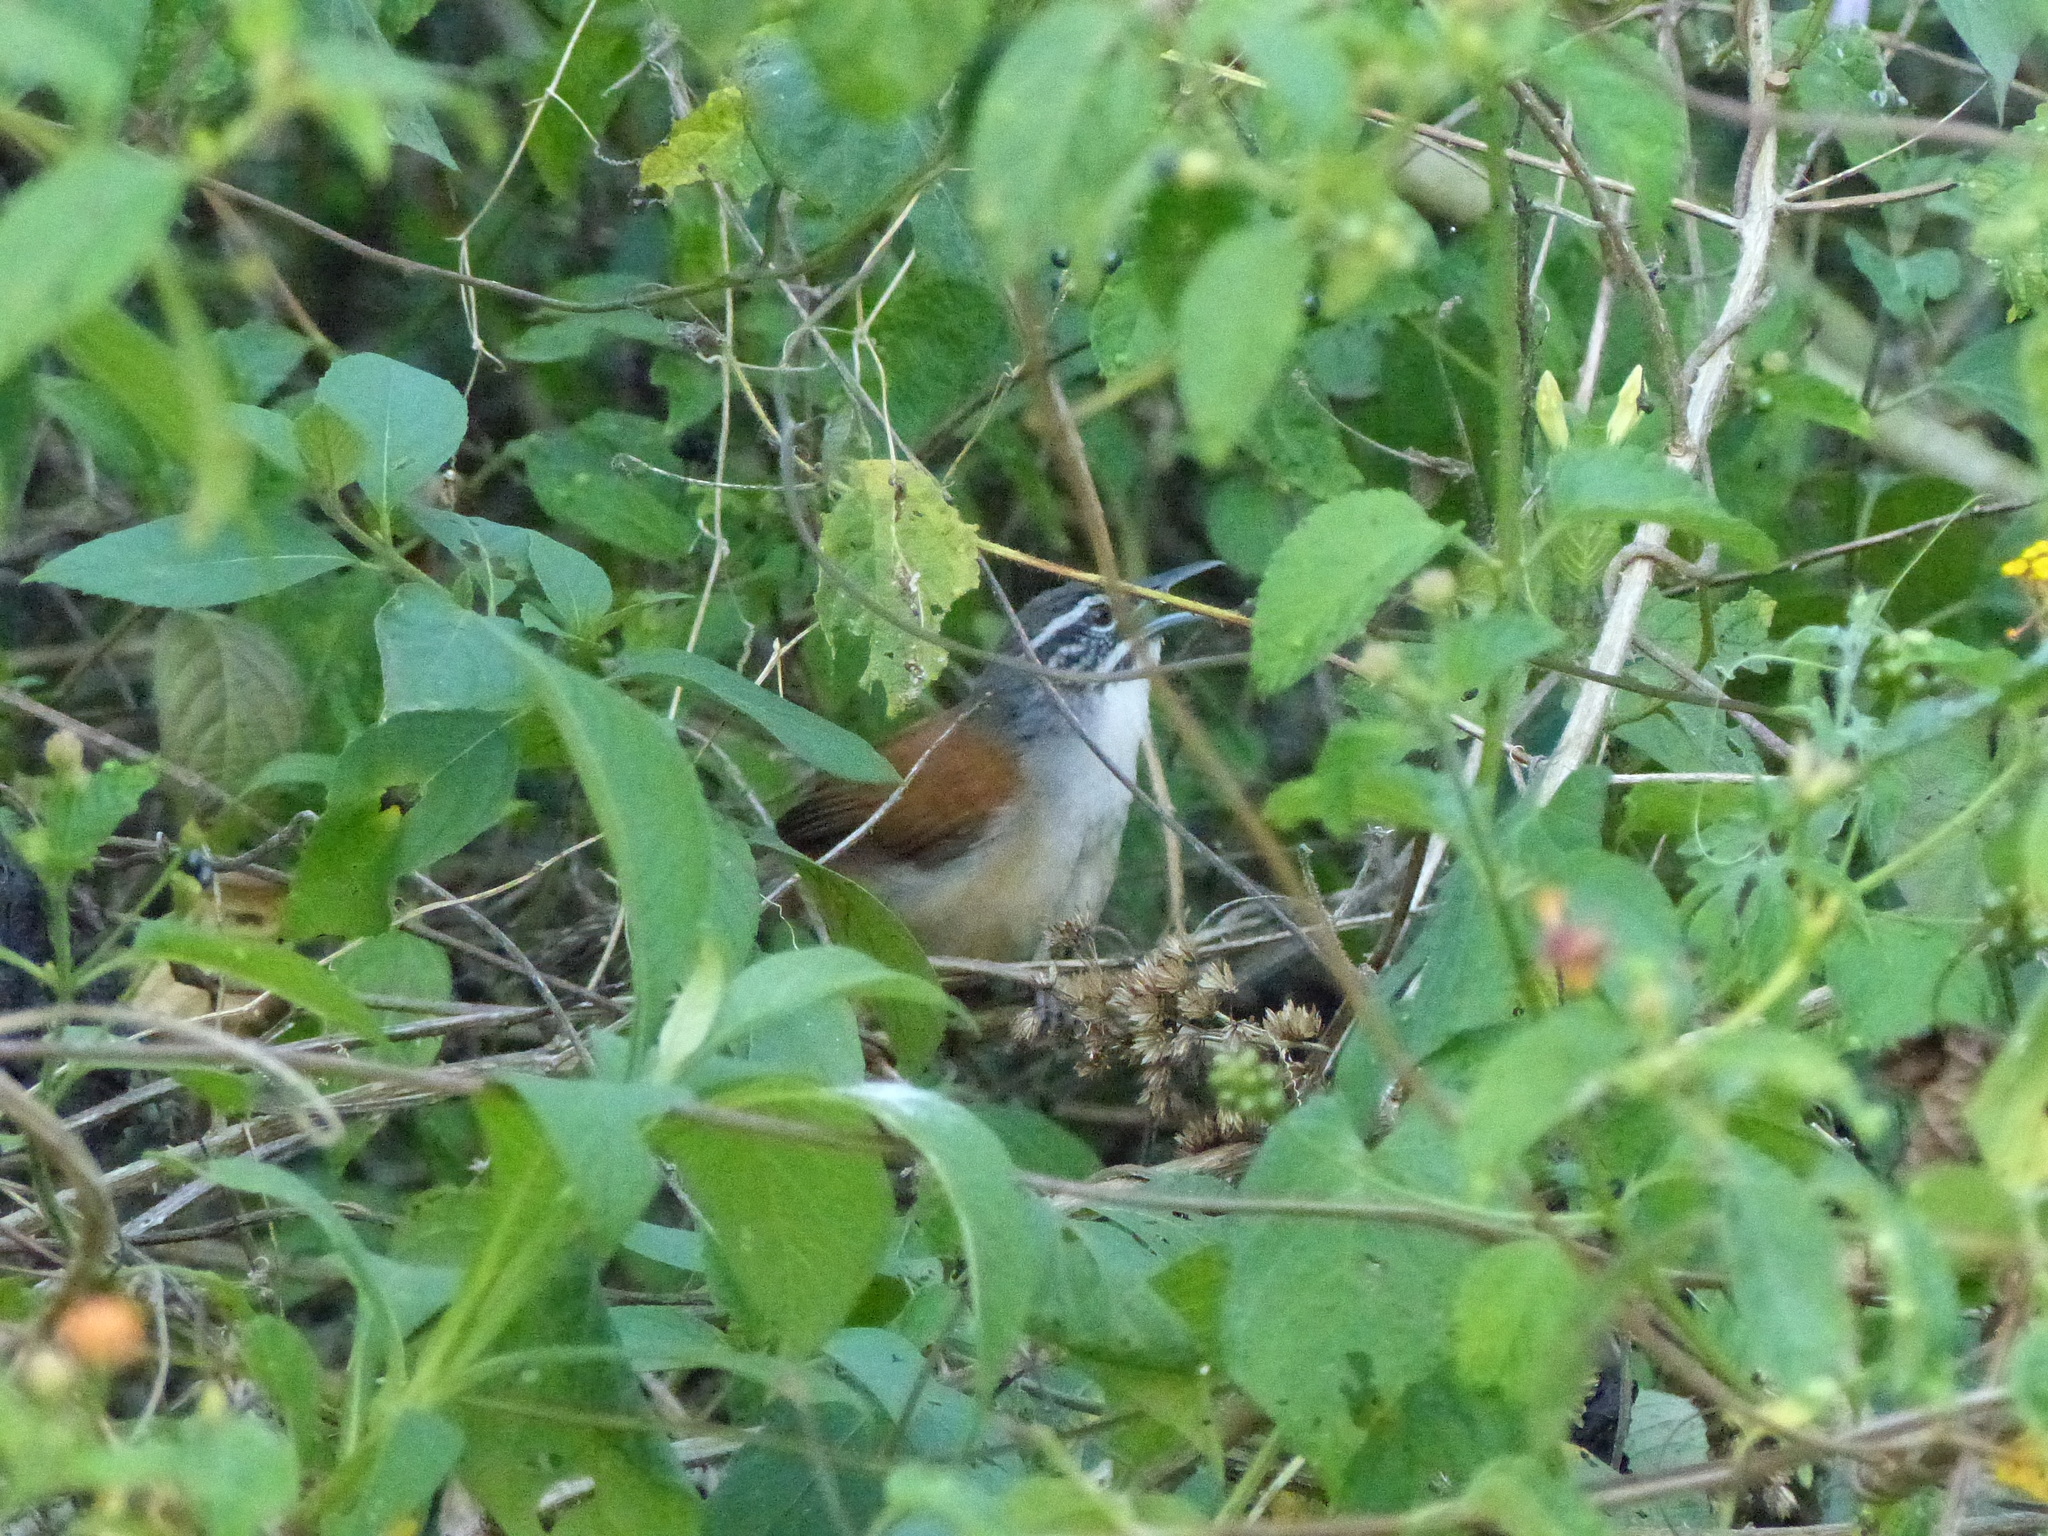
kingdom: Animalia
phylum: Chordata
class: Aves
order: Passeriformes
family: Troglodytidae
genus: Pheugopedius
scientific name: Pheugopedius genibarbis
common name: Moustached wren
